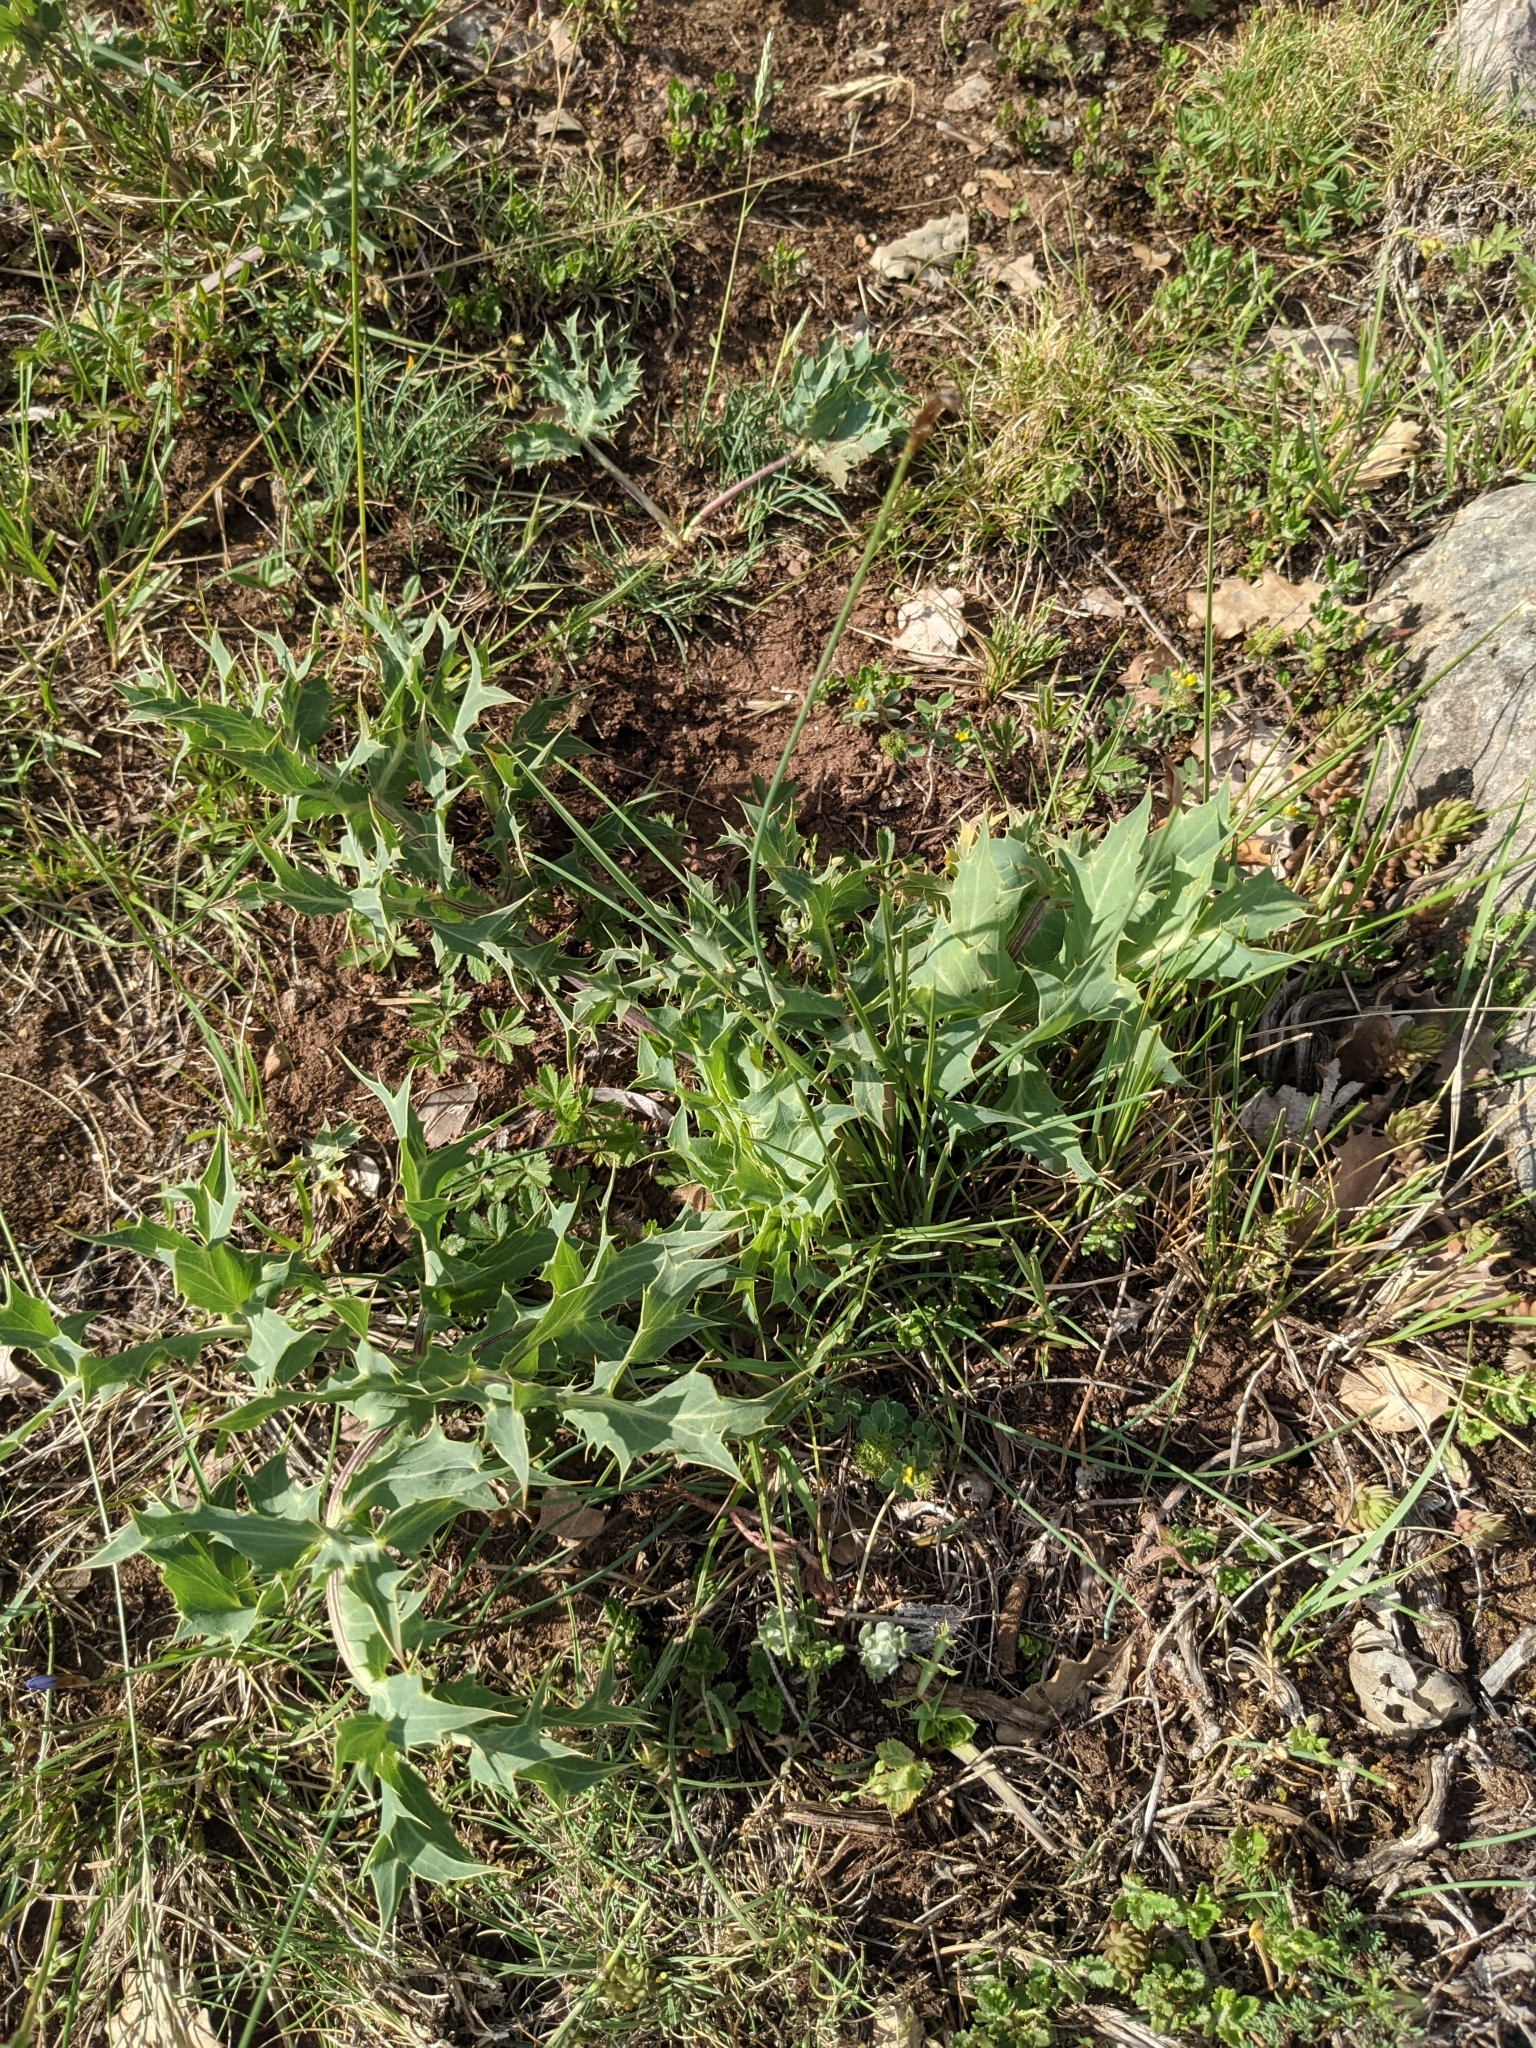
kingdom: Plantae
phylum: Tracheophyta
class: Magnoliopsida
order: Apiales
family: Apiaceae
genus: Eryngium
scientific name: Eryngium campestre
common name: Field eryngo
